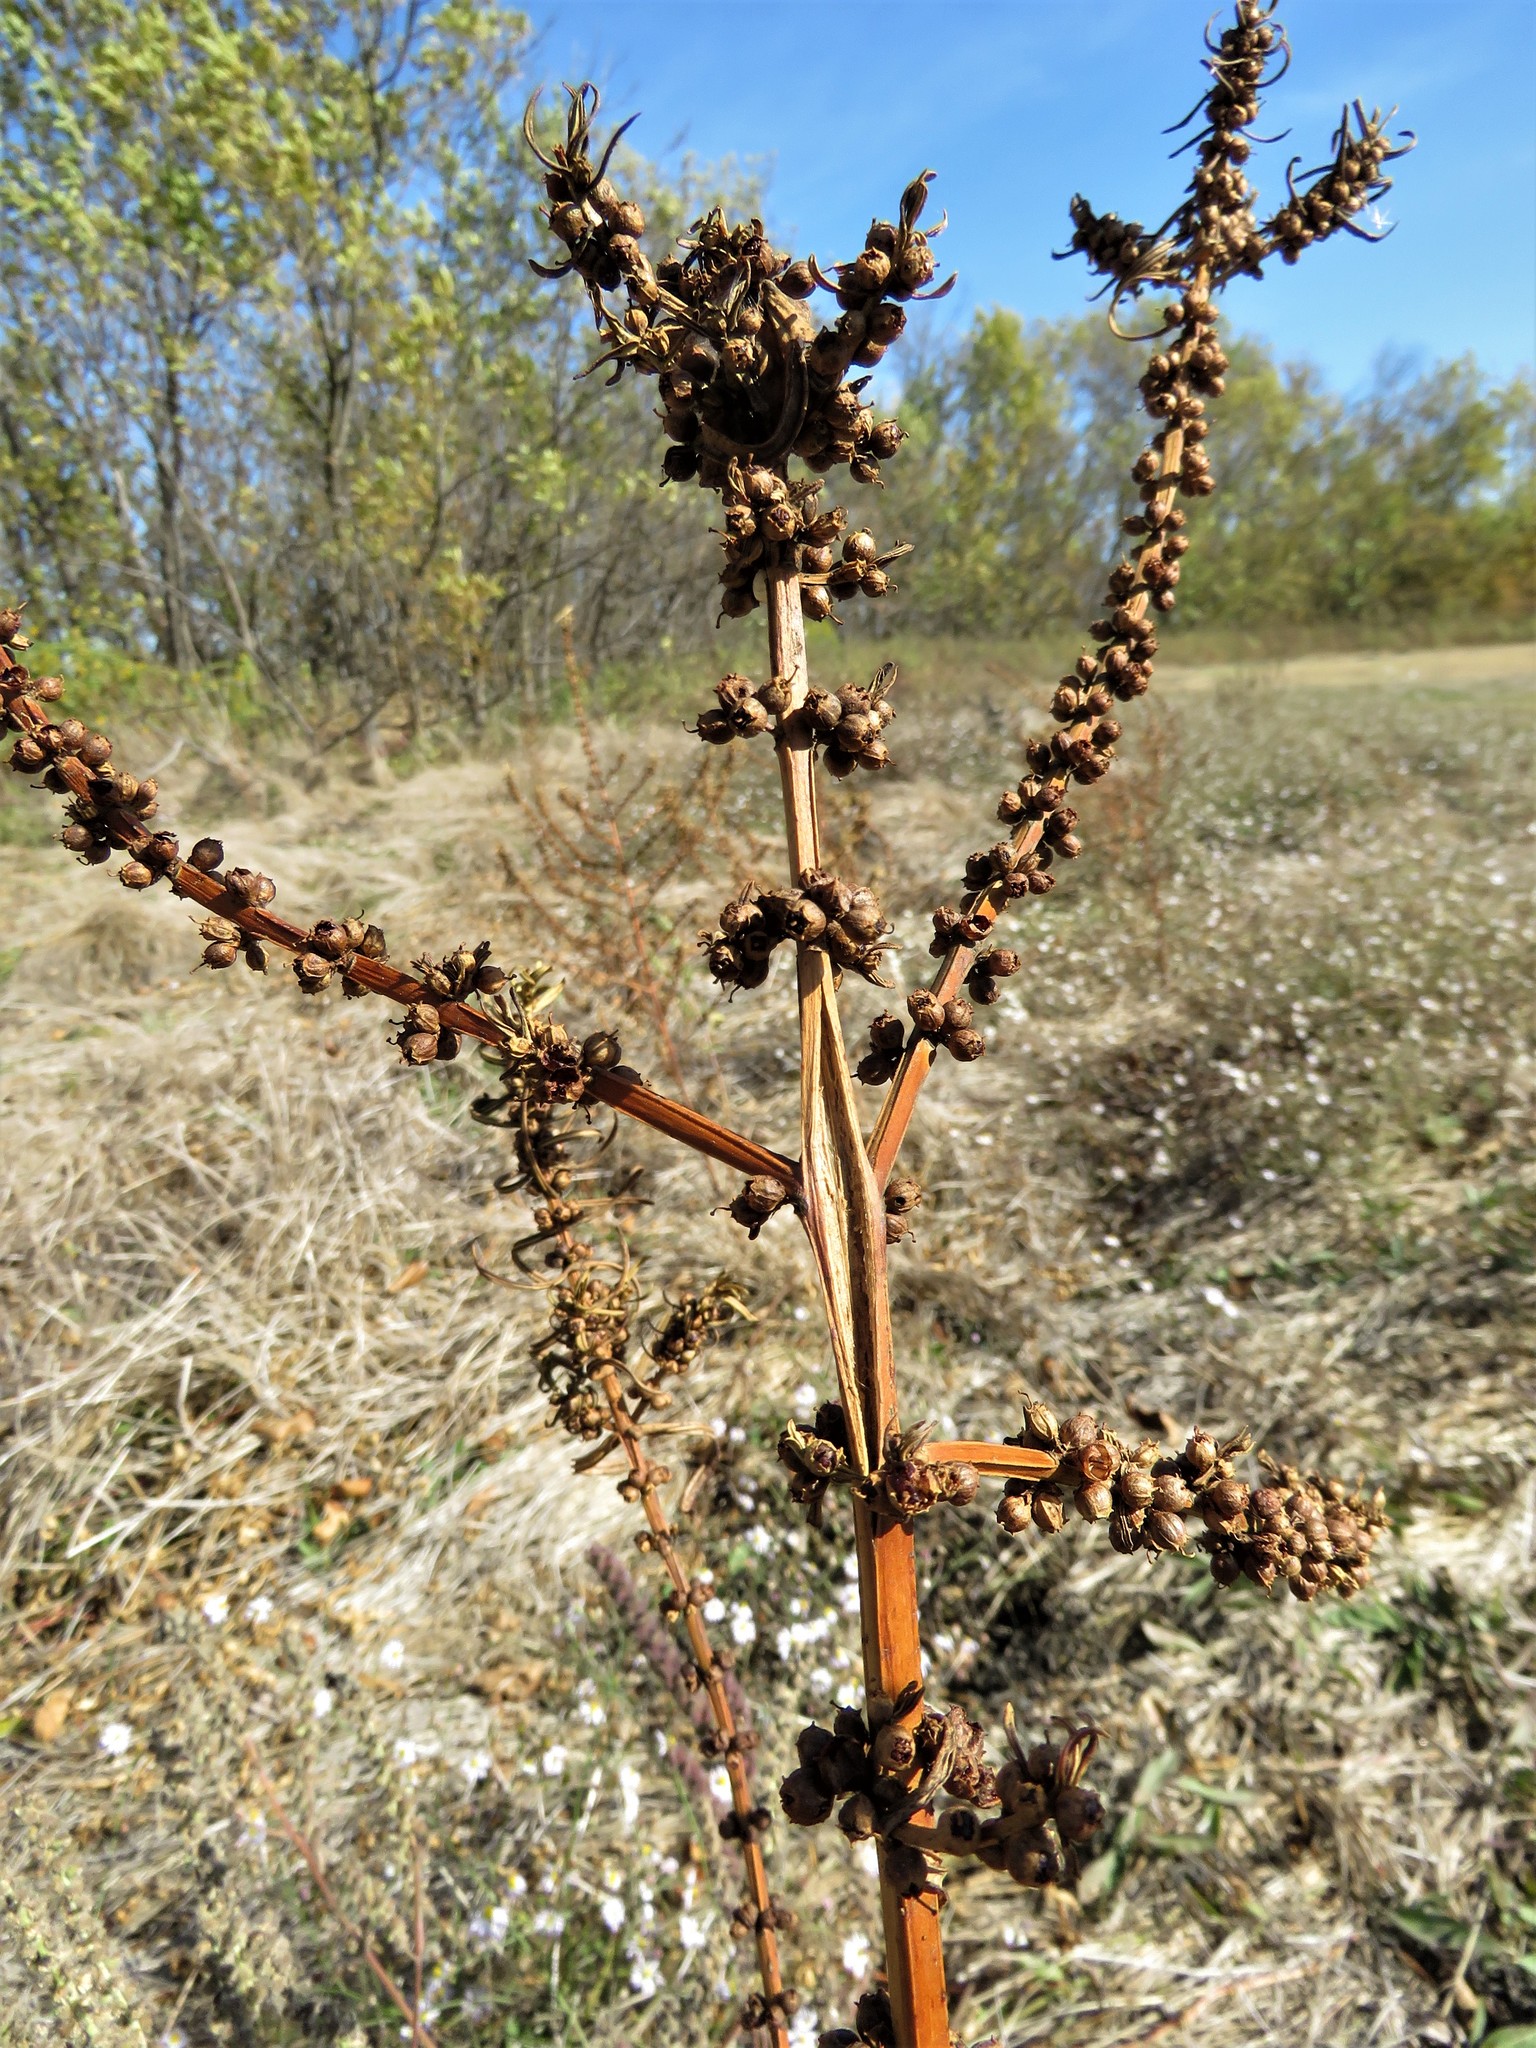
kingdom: Plantae
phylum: Tracheophyta
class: Magnoliopsida
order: Myrtales
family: Lythraceae
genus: Ammannia
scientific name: Ammannia coccinea
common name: Valley redstem
